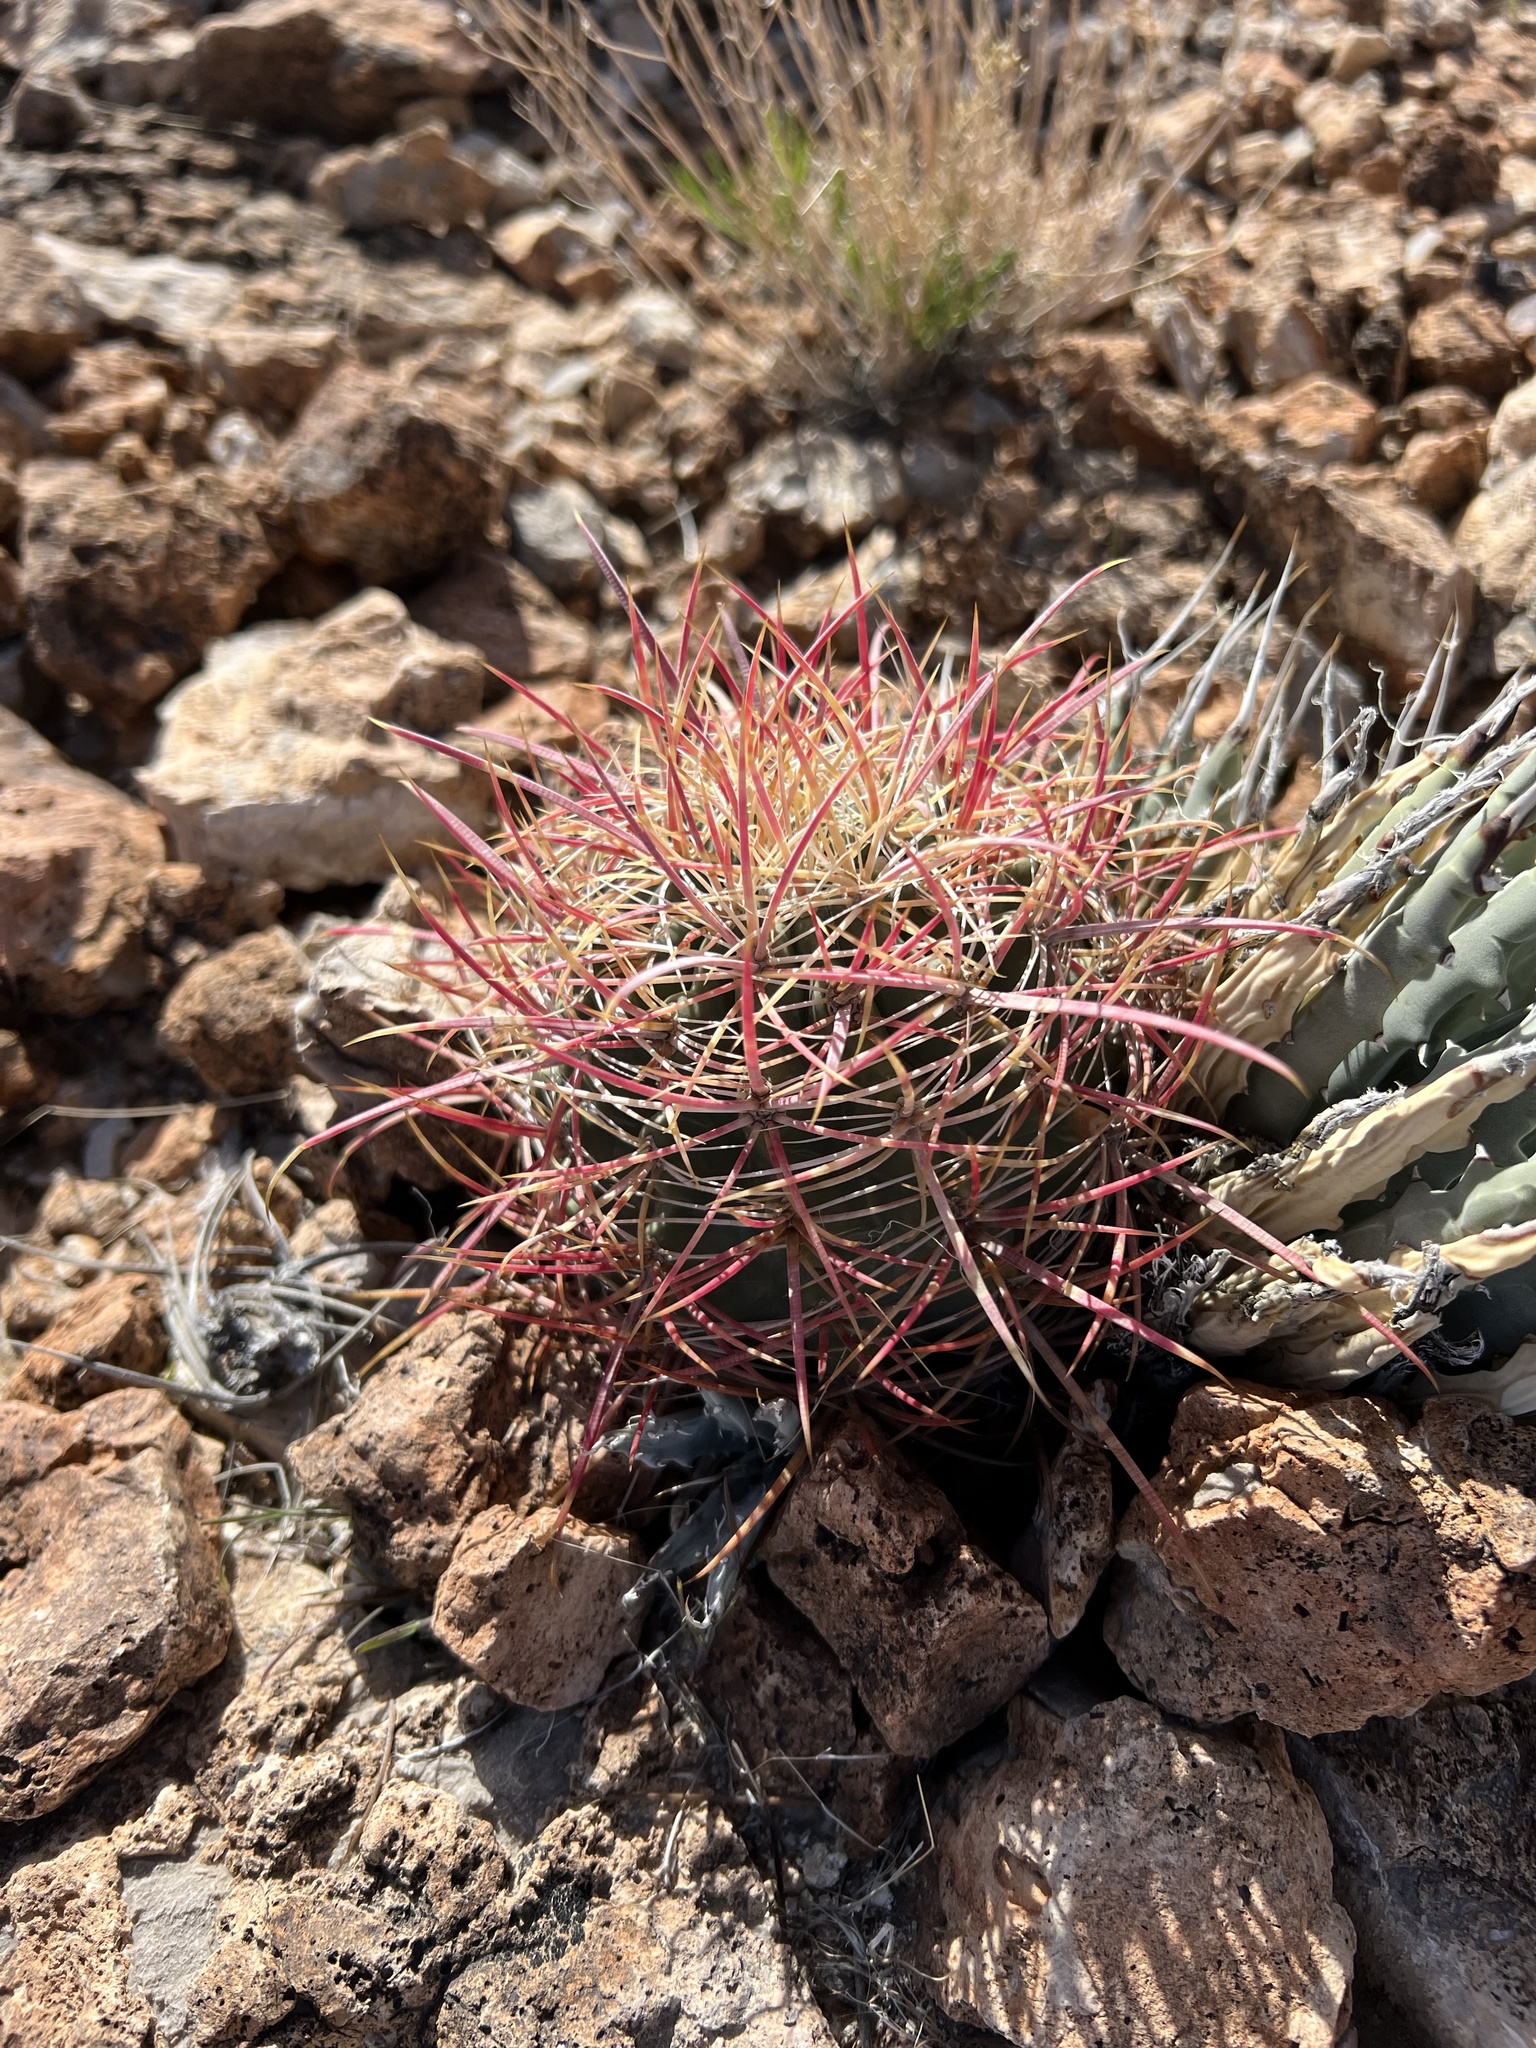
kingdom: Plantae
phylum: Tracheophyta
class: Magnoliopsida
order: Caryophyllales
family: Cactaceae
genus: Ferocactus
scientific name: Ferocactus cylindraceus
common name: California barrel cactus
